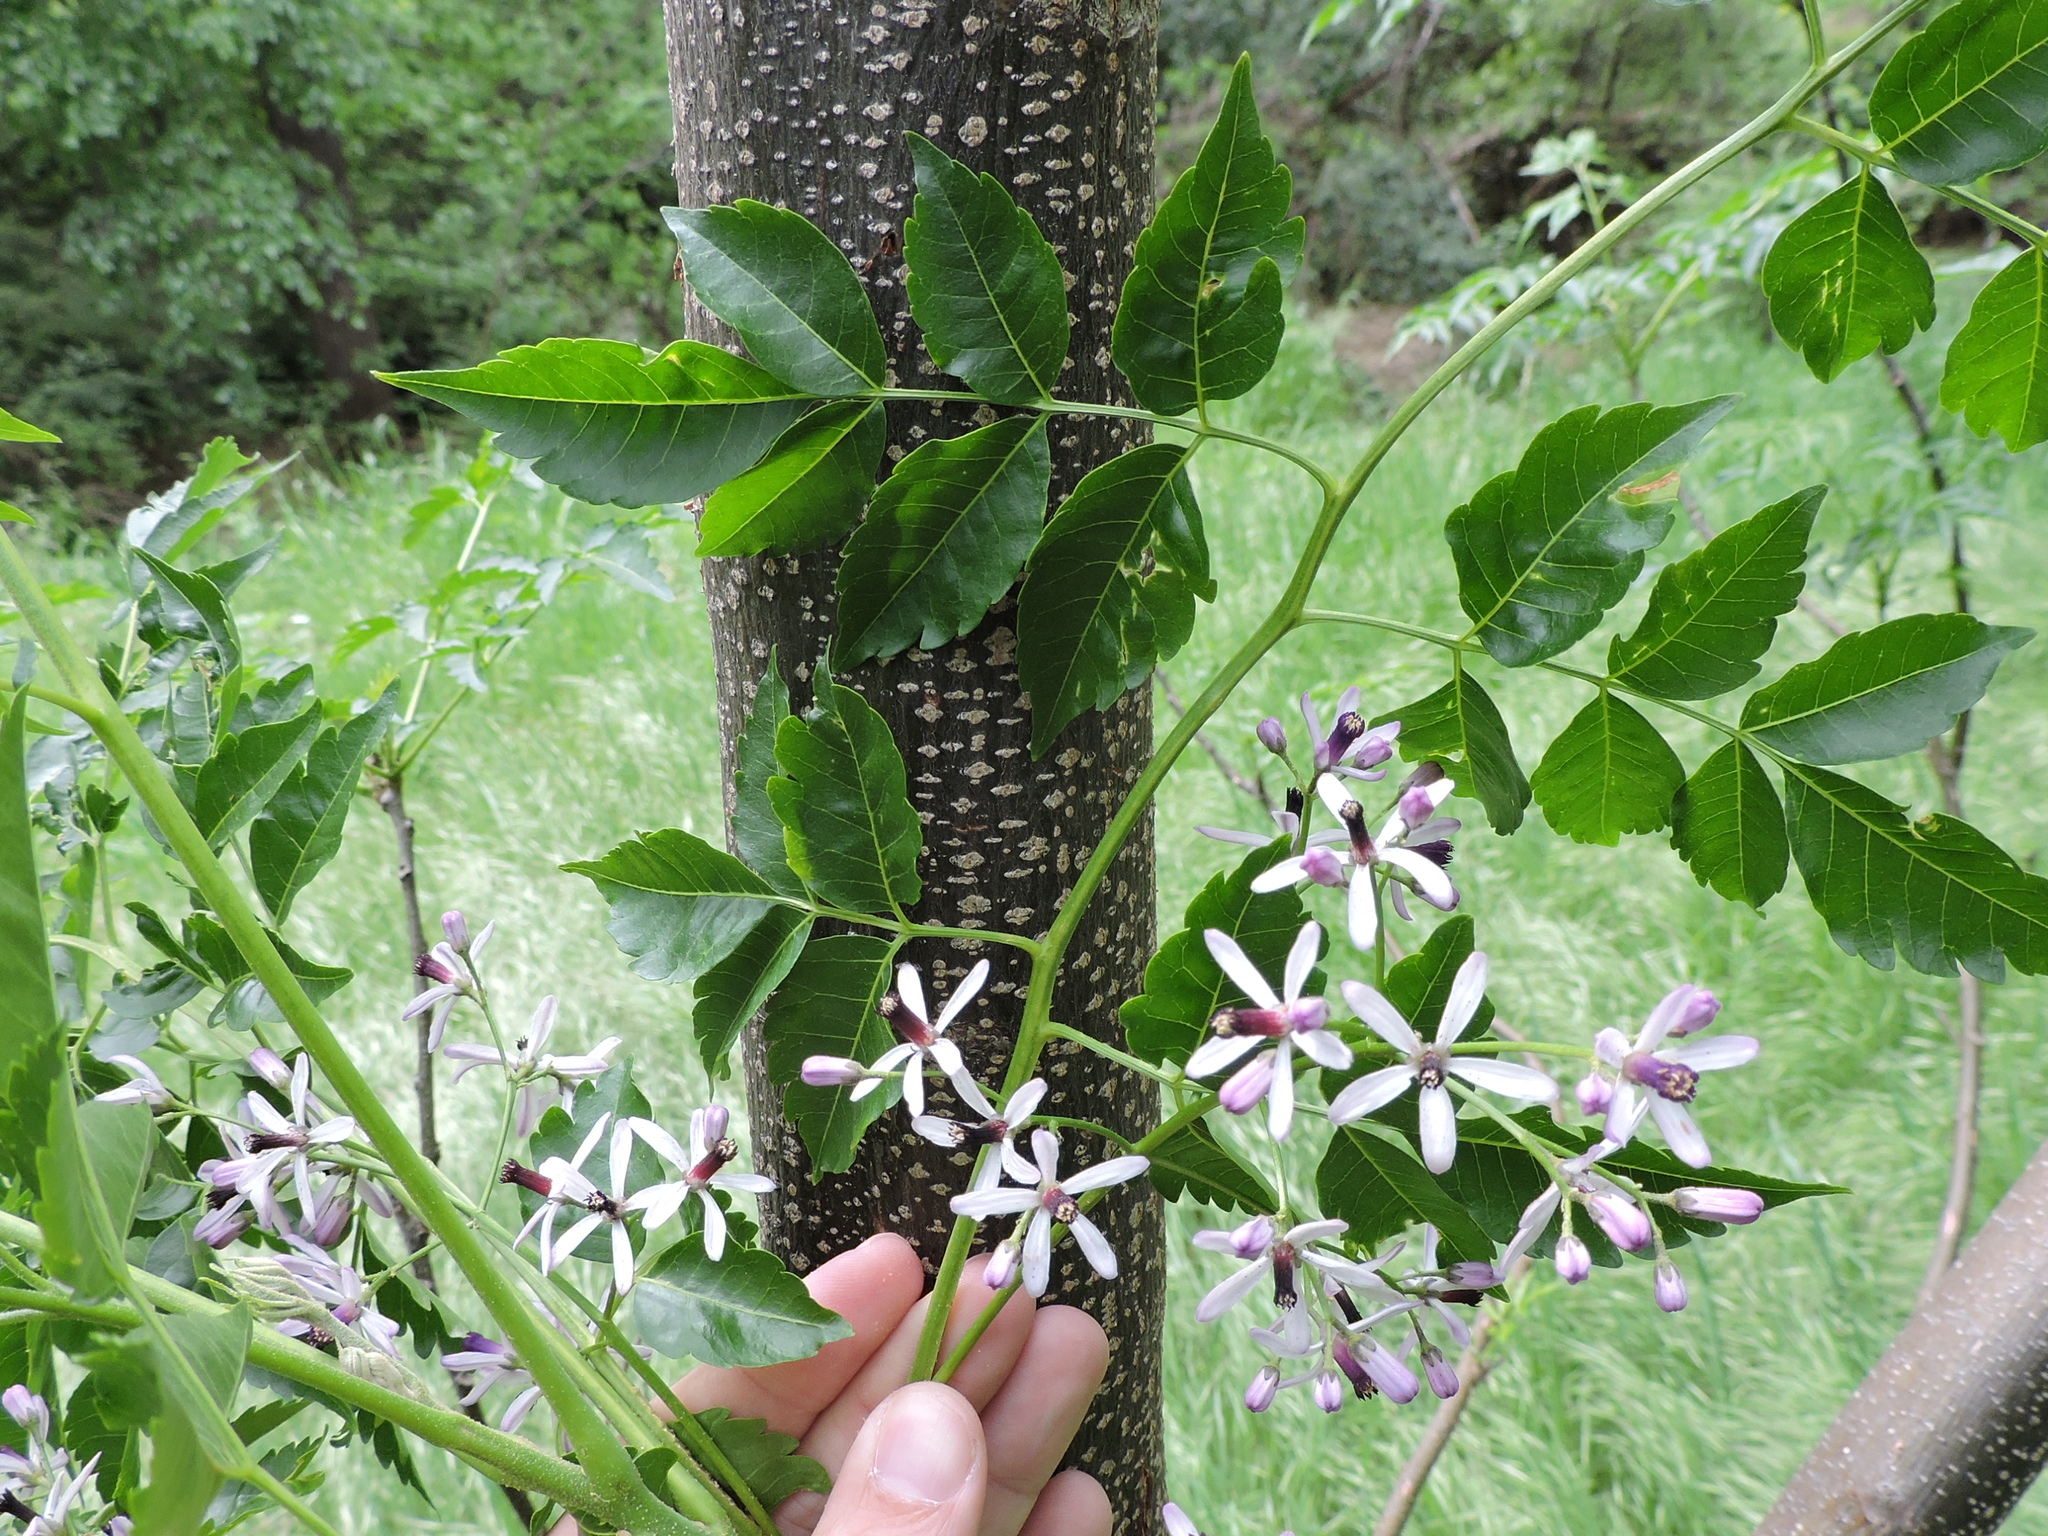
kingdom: Plantae
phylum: Tracheophyta
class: Magnoliopsida
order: Sapindales
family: Meliaceae
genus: Melia
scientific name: Melia azedarach
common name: Chinaberrytree
